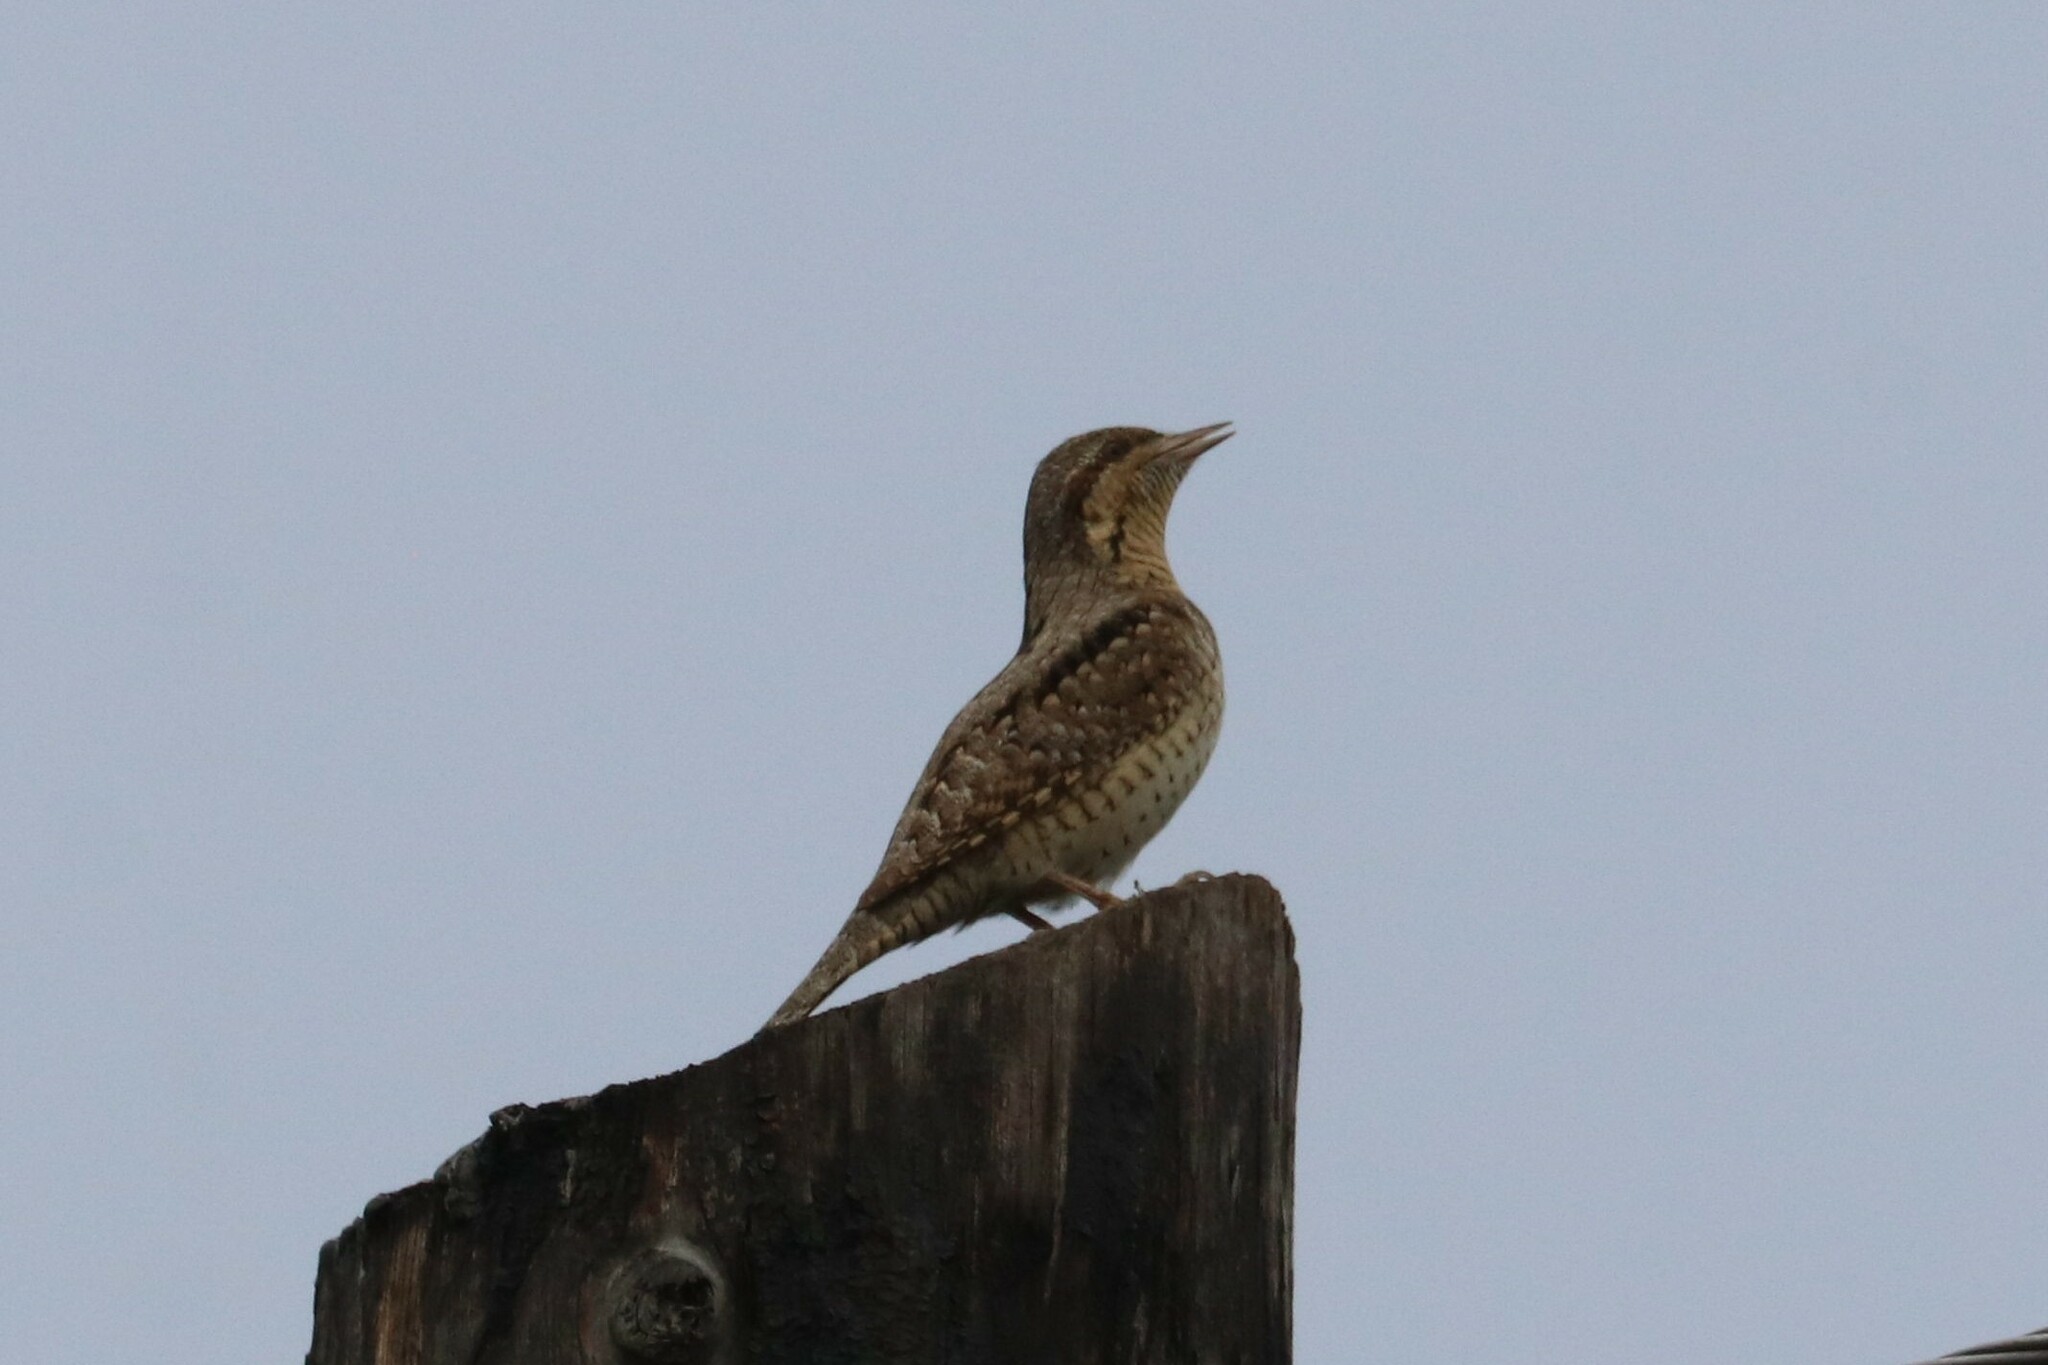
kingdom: Animalia
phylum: Chordata
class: Aves
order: Piciformes
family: Picidae
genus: Jynx
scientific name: Jynx torquilla
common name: Eurasian wryneck
